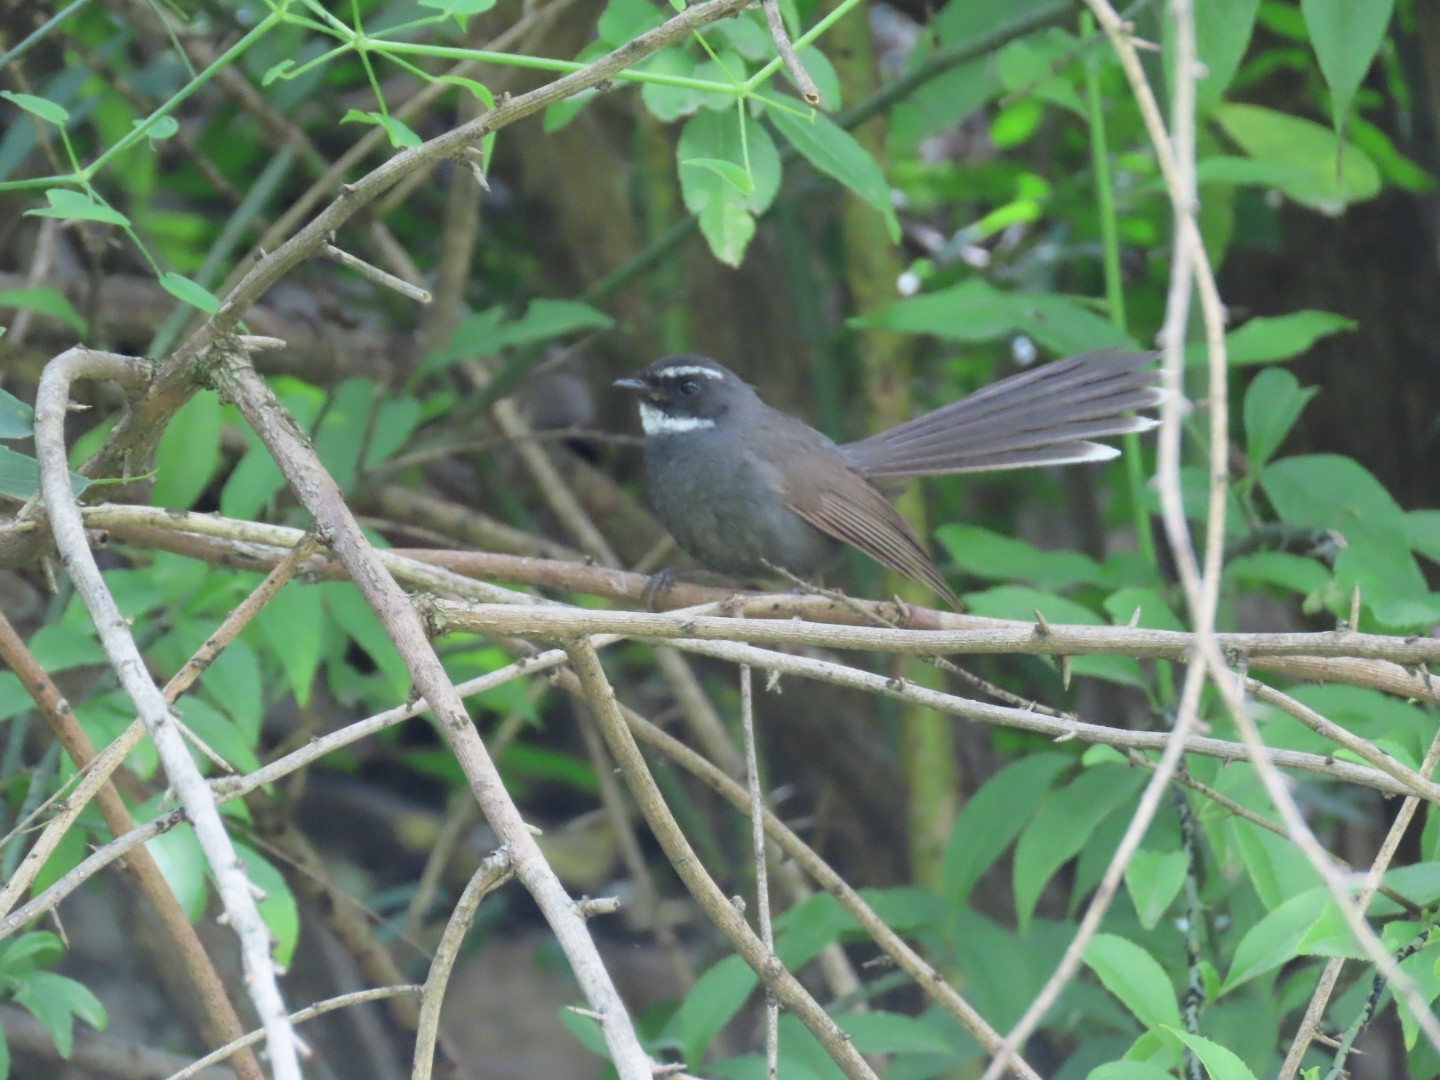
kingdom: Animalia
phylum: Chordata
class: Aves
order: Passeriformes
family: Rhipiduridae
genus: Rhipidura
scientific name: Rhipidura albicollis
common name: White-throated fantail
